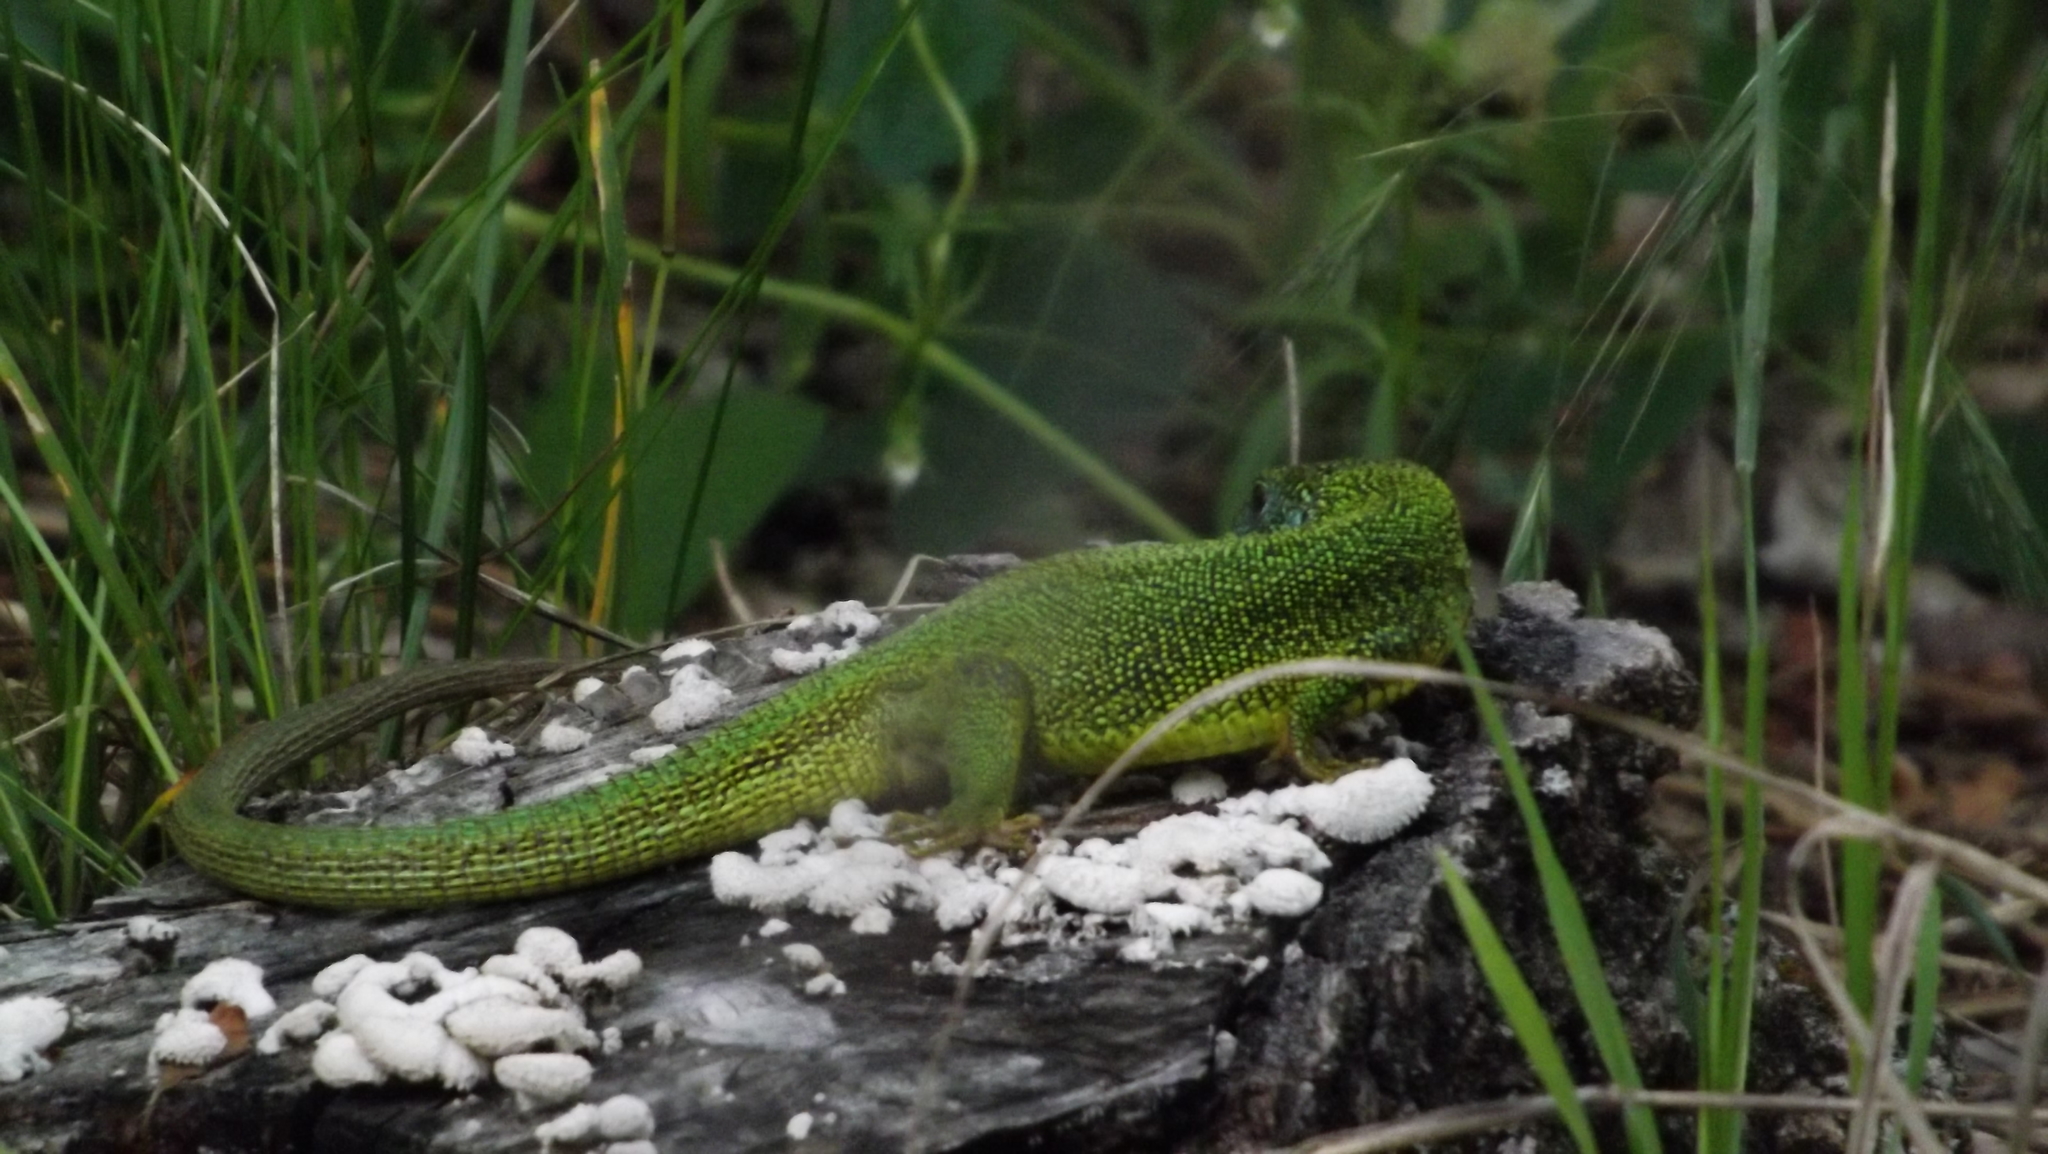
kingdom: Animalia
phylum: Chordata
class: Squamata
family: Lacertidae
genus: Lacerta
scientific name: Lacerta viridis
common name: European green lizard
